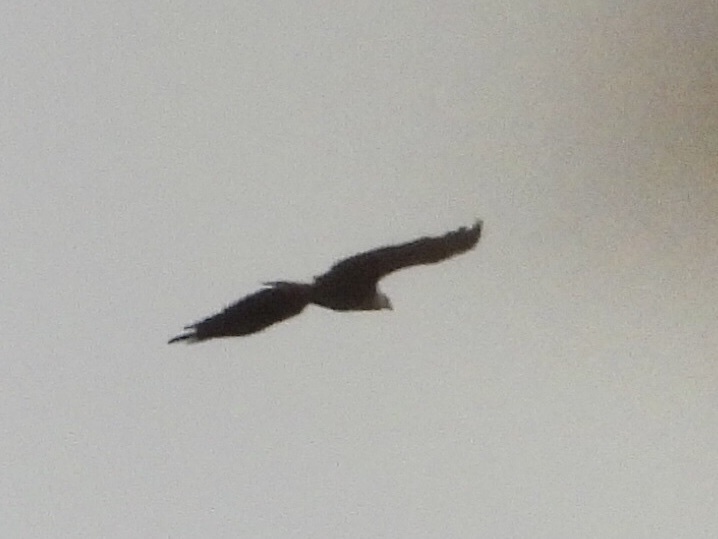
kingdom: Animalia
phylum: Chordata
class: Aves
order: Accipitriformes
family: Accipitridae
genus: Haliaeetus
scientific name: Haliaeetus leucocephalus
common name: Bald eagle
